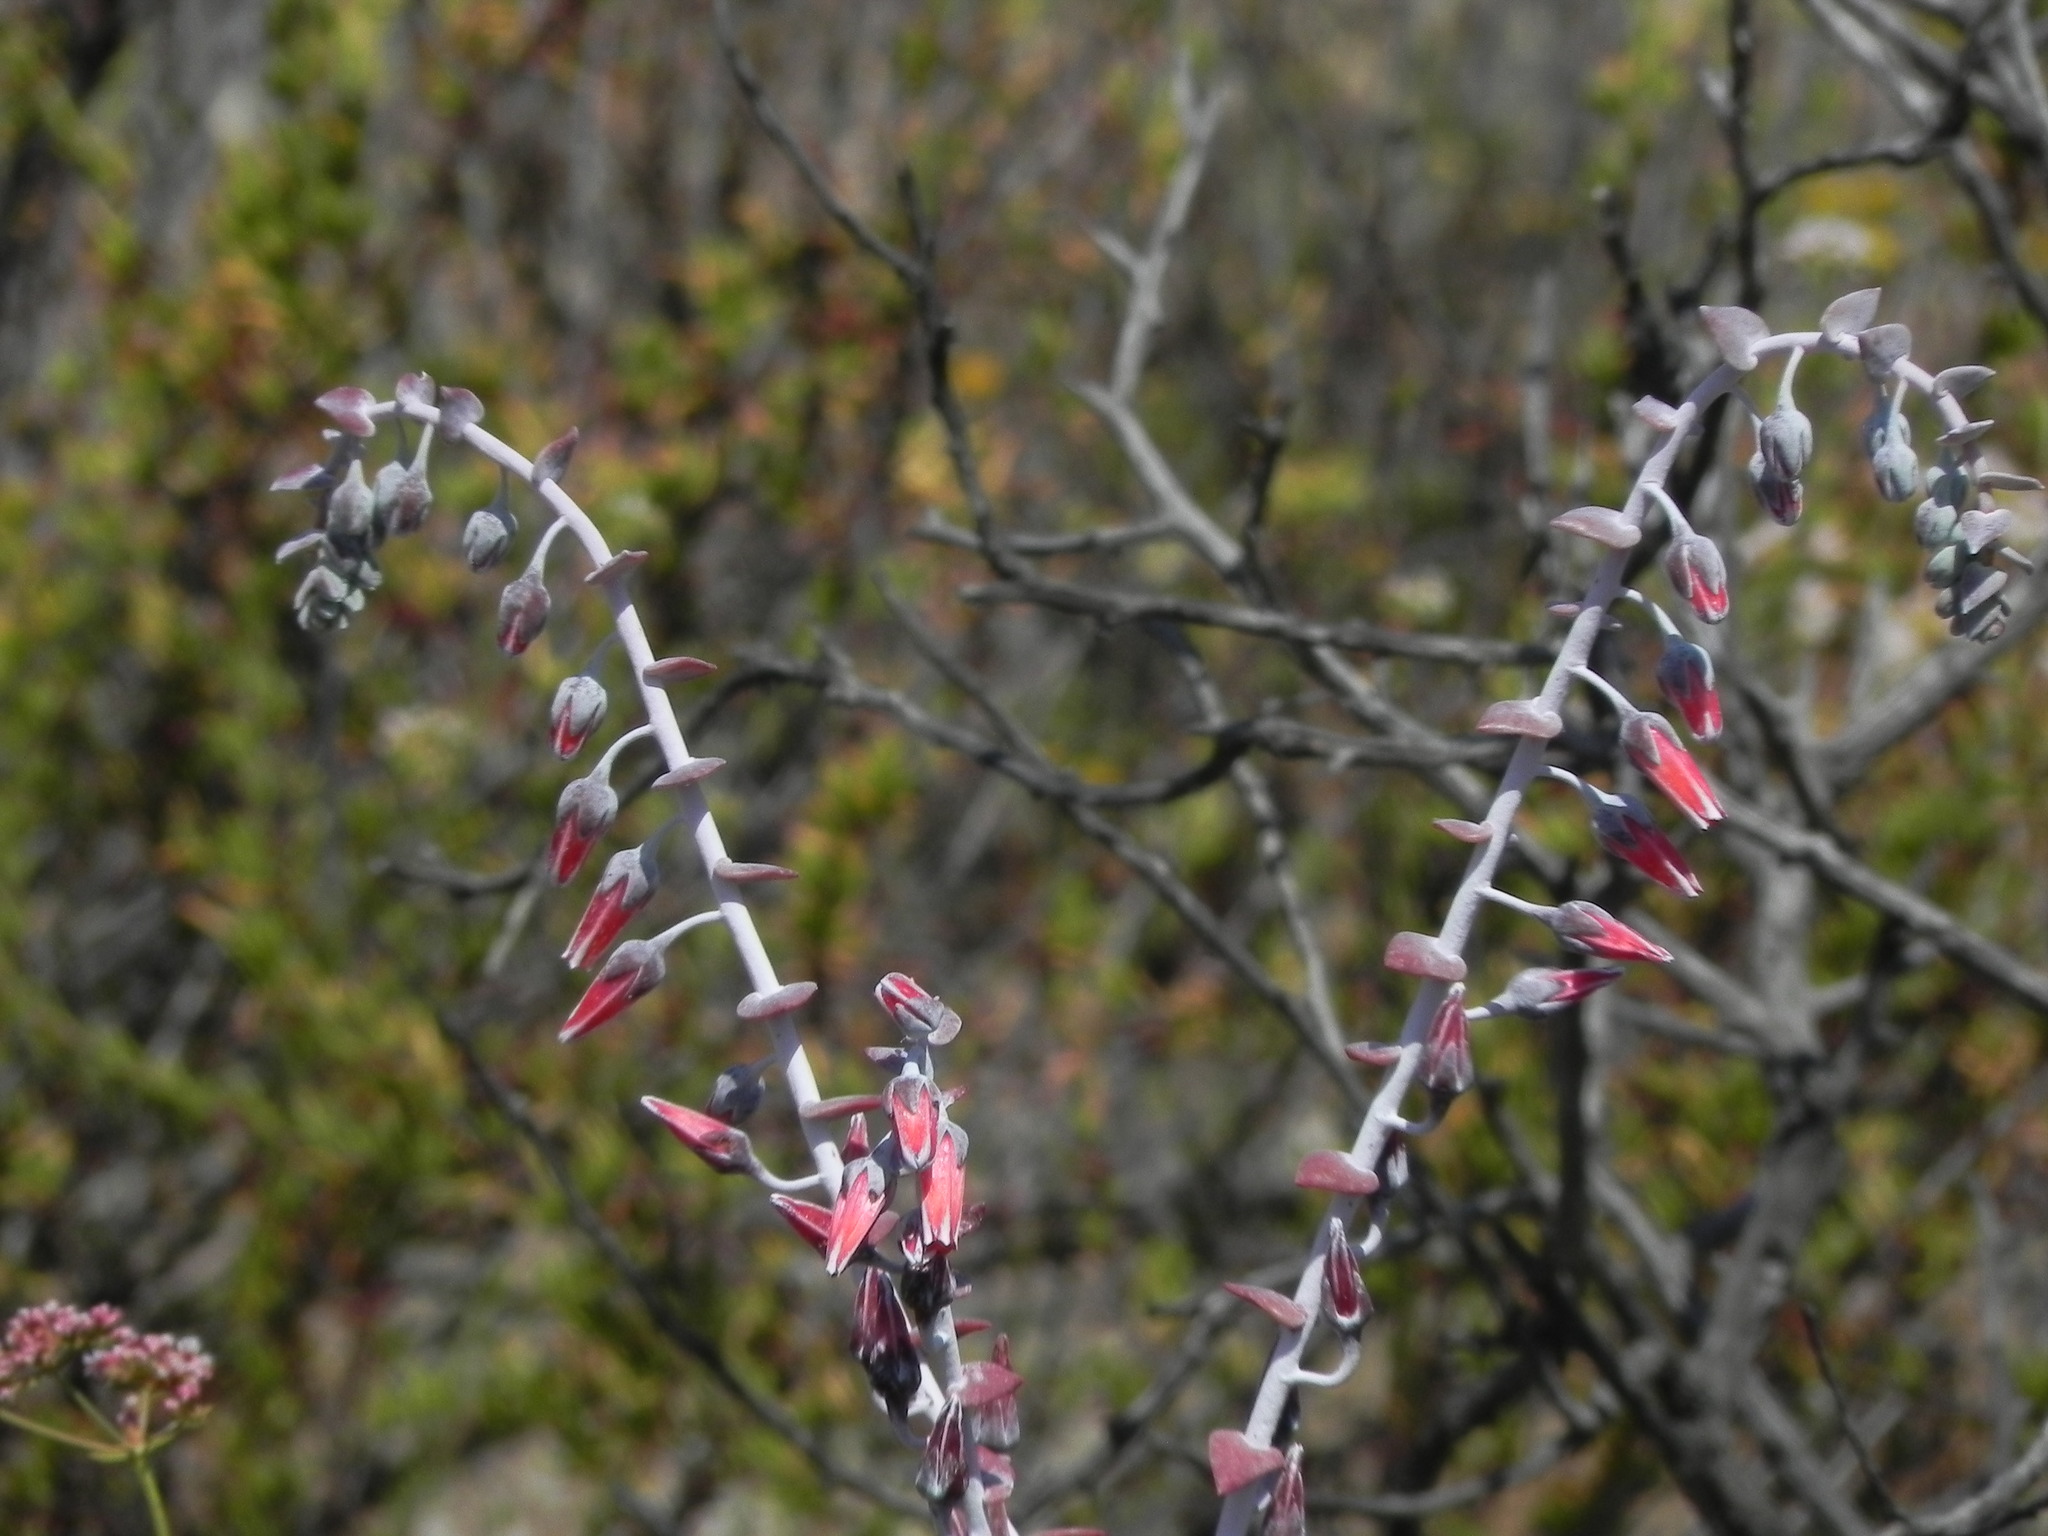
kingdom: Plantae
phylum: Tracheophyta
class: Magnoliopsida
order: Saxifragales
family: Crassulaceae
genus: Dudleya
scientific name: Dudleya pulverulenta
